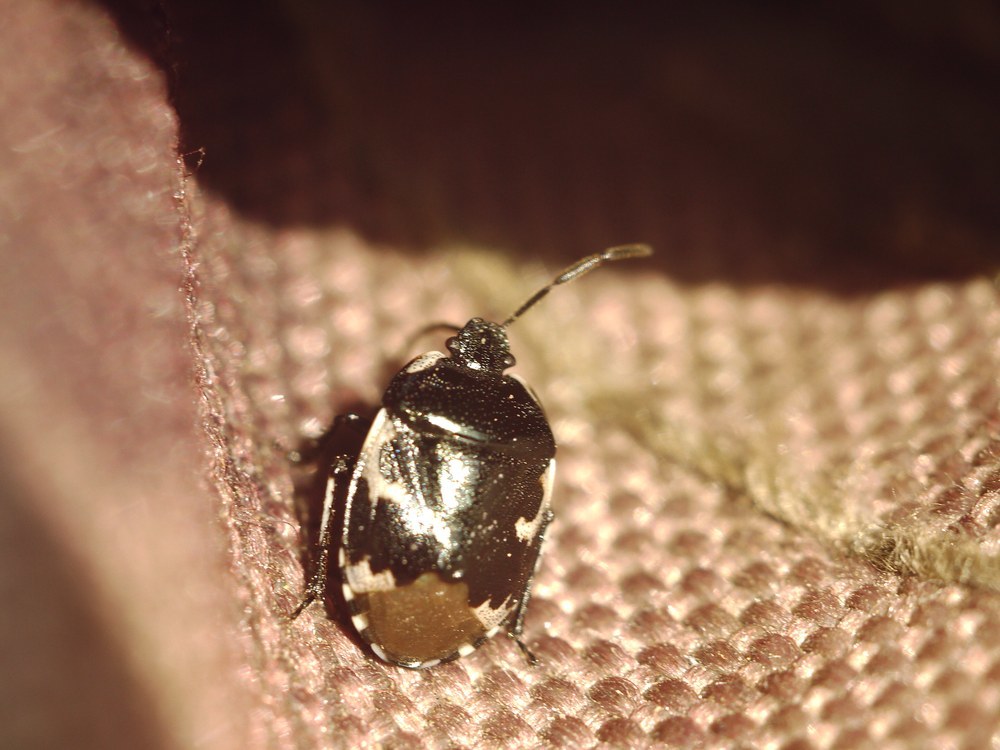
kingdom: Animalia
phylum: Arthropoda
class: Insecta
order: Hemiptera
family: Cydnidae
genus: Tritomegas
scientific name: Tritomegas bicolor
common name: Pied shieldbug
